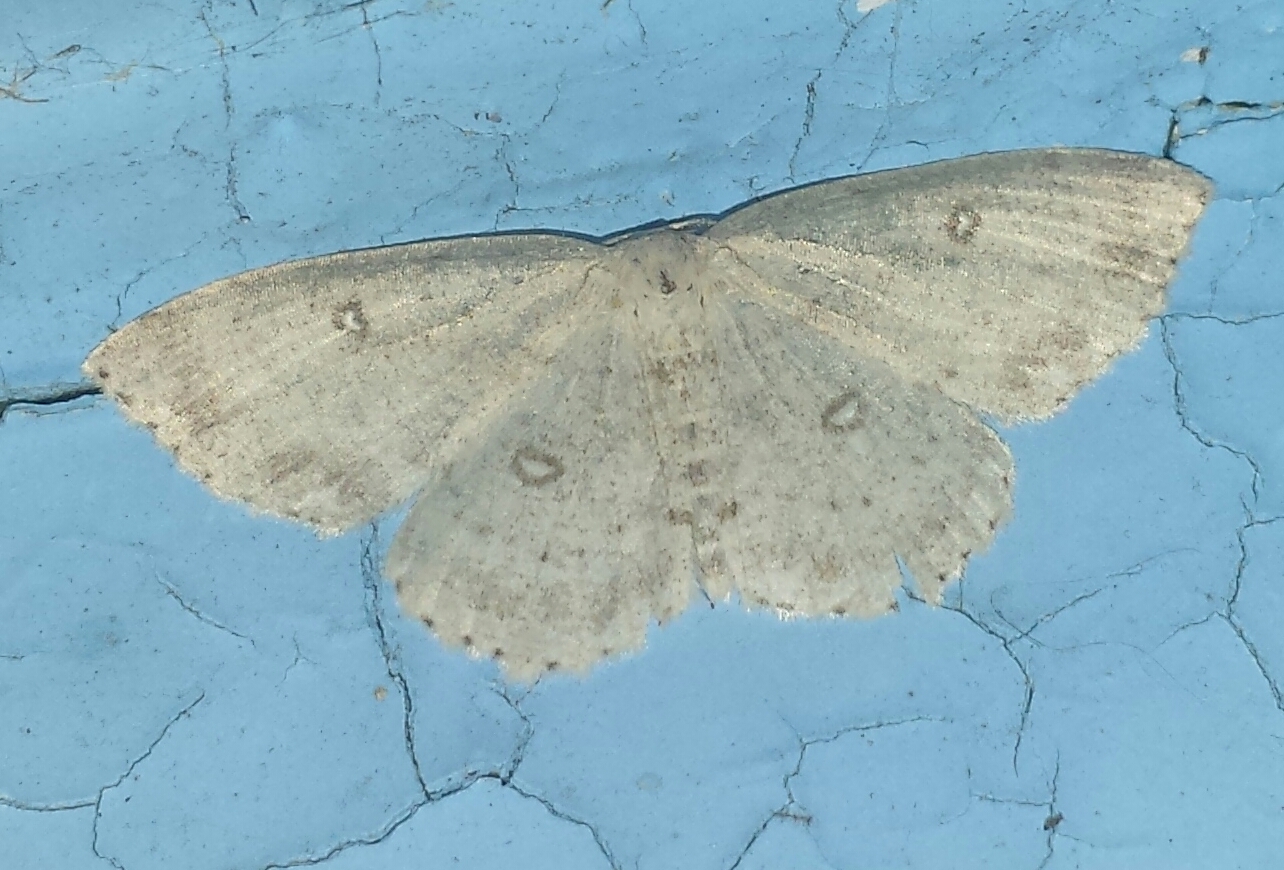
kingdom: Animalia
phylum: Arthropoda
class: Insecta
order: Lepidoptera
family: Geometridae
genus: Cyclophora
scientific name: Cyclophora pendulinaria
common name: Sweet fern geometer
